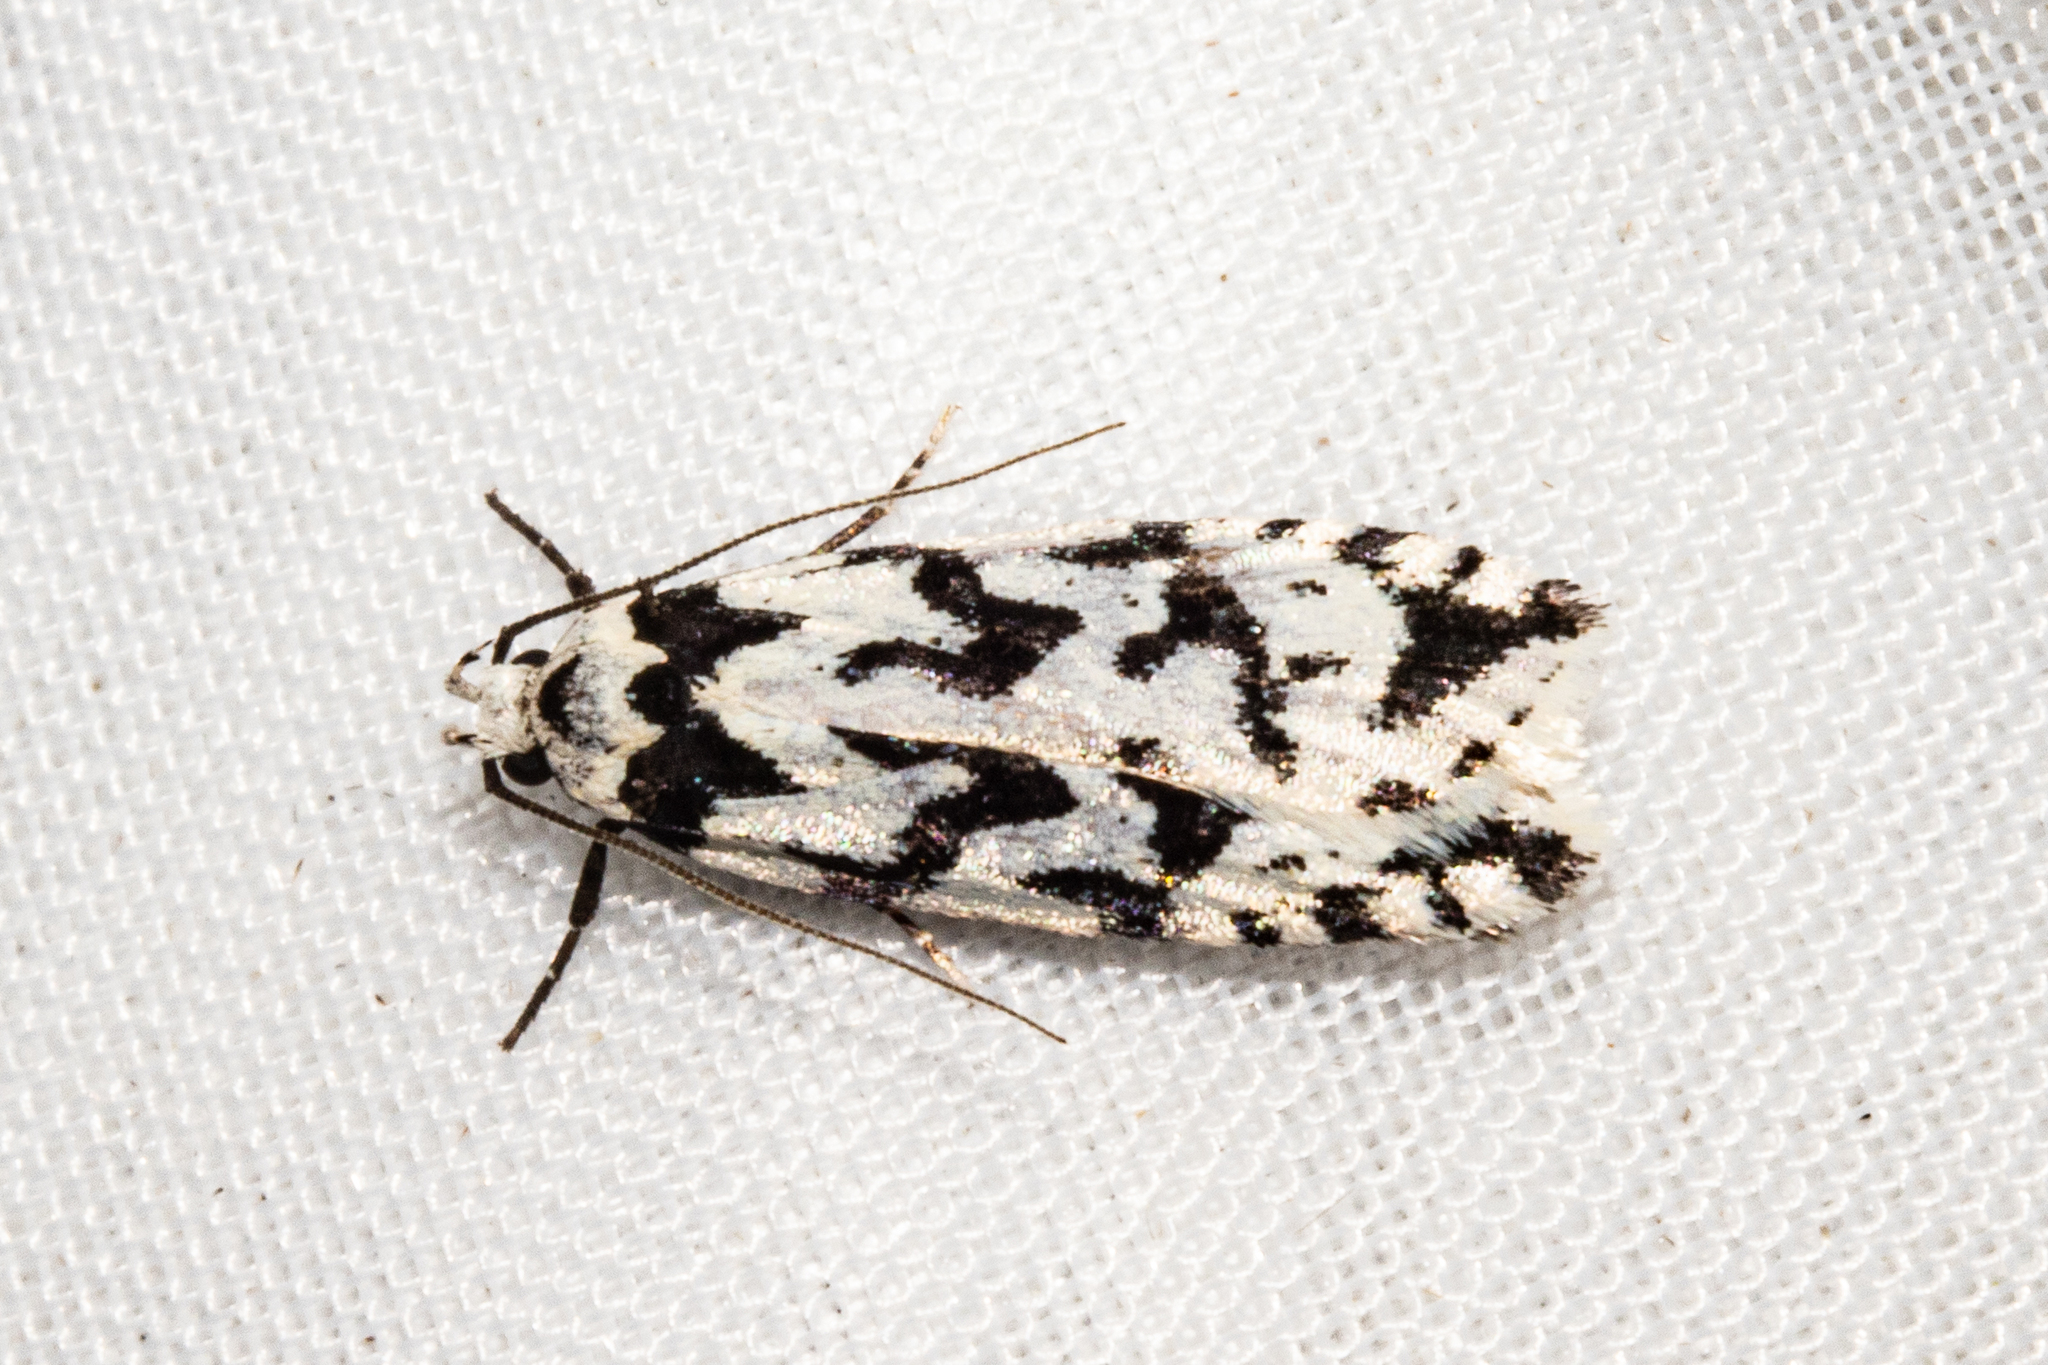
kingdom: Animalia
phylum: Arthropoda
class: Insecta
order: Lepidoptera
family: Oecophoridae
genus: Izatha
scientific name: Izatha acmonias
